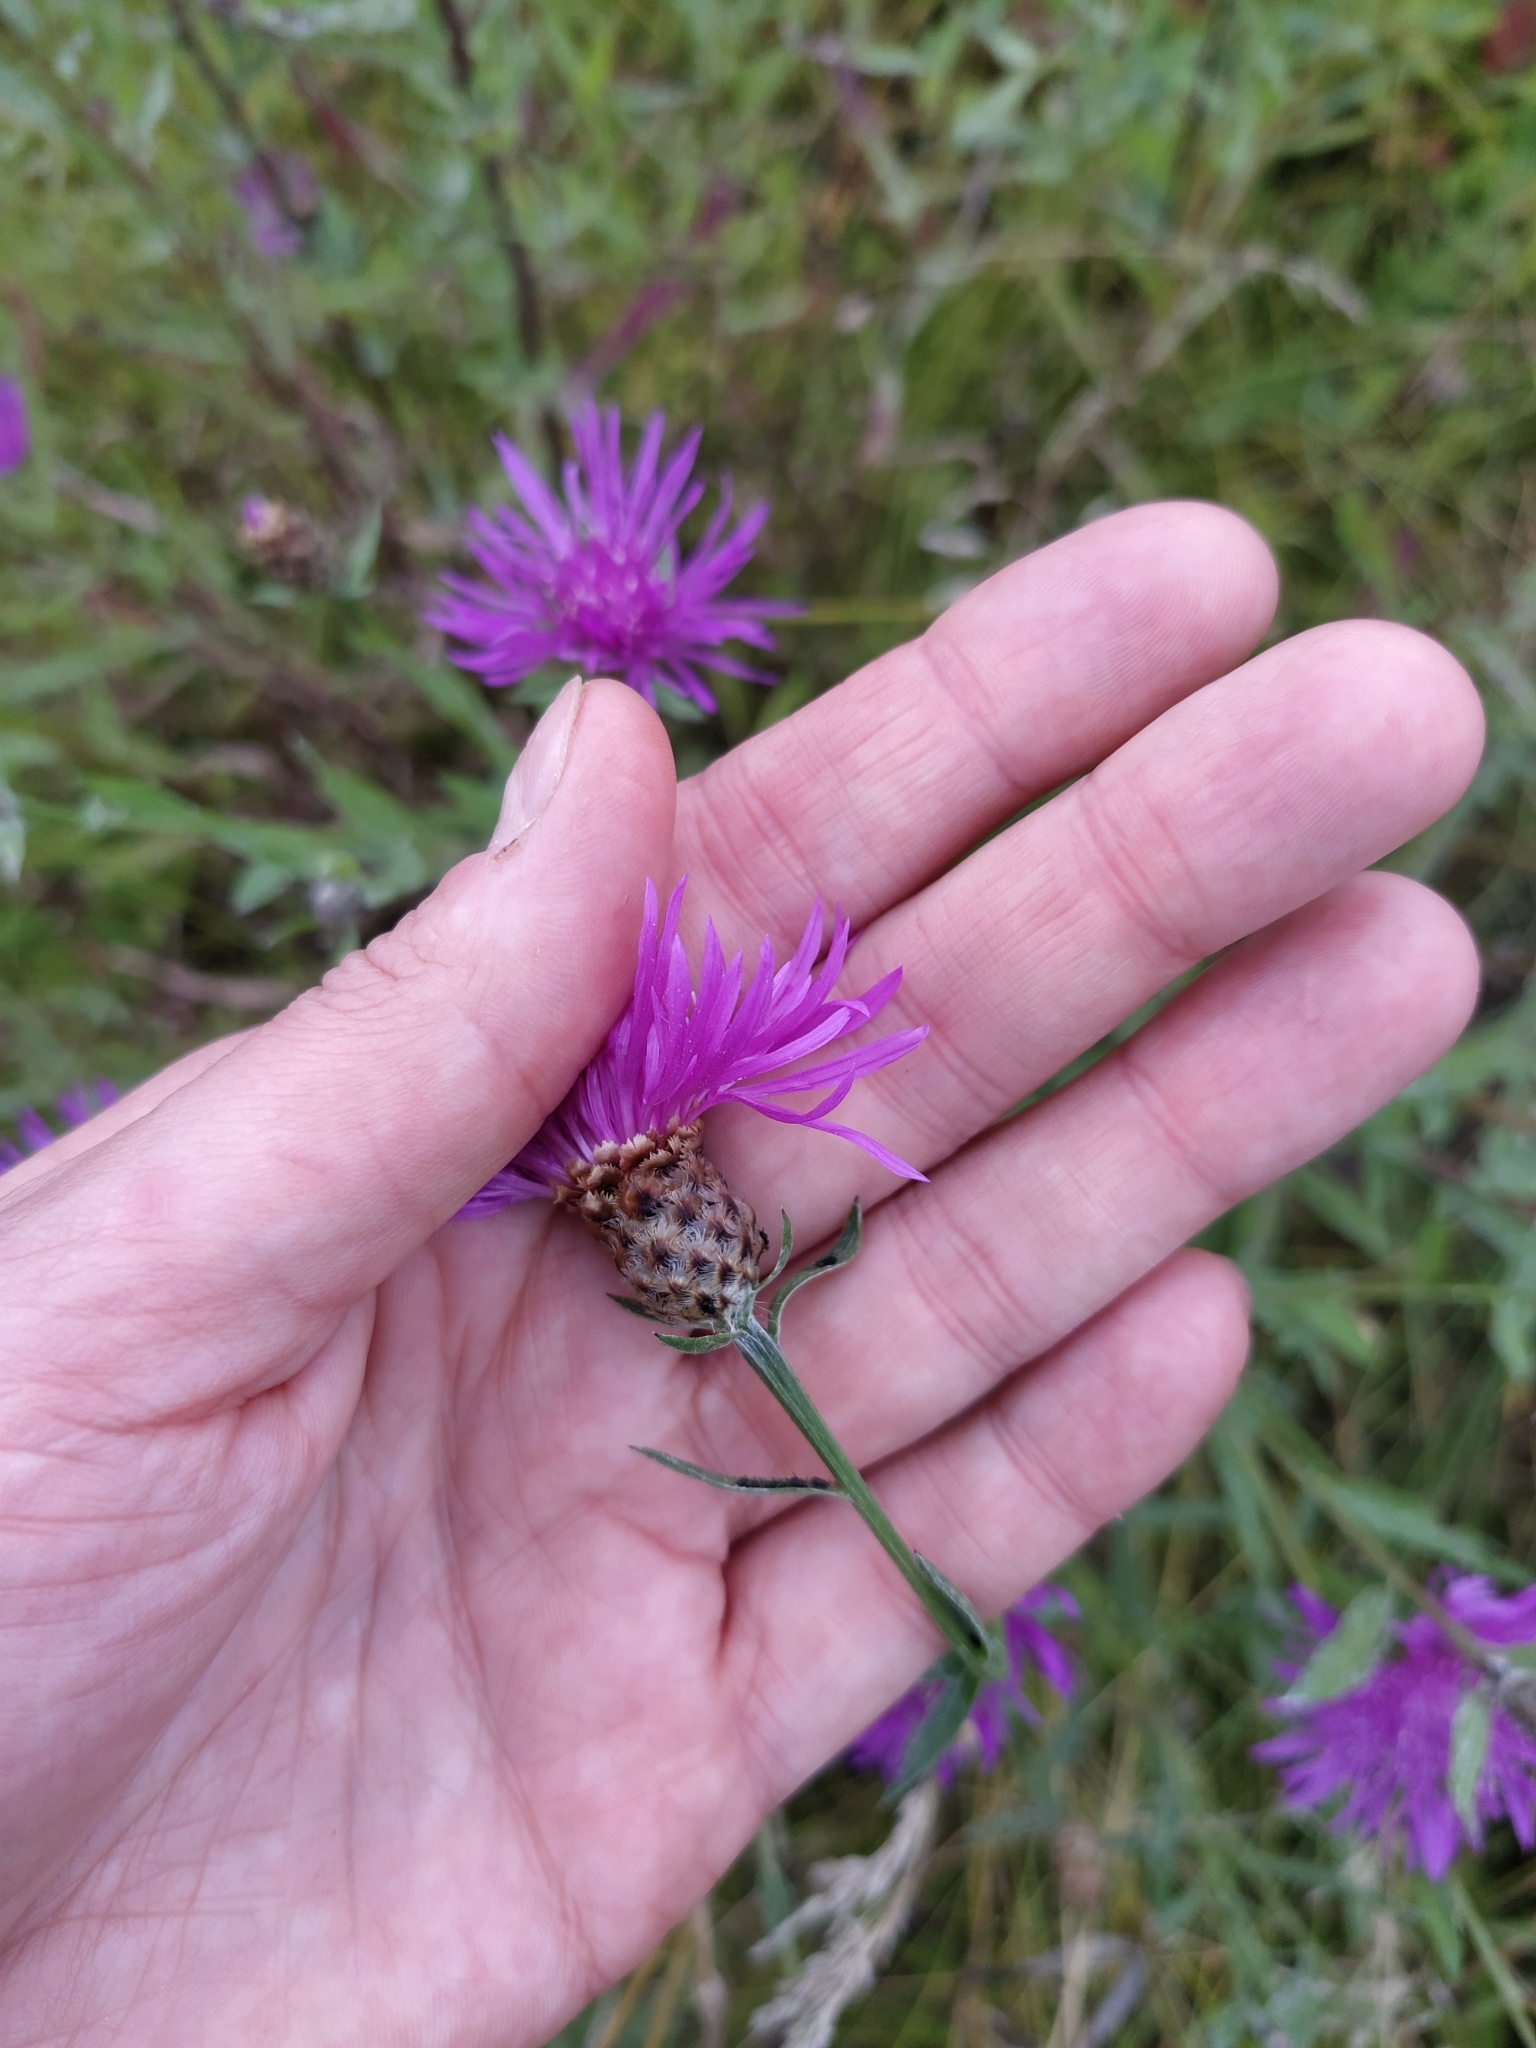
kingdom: Plantae
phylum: Tracheophyta
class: Magnoliopsida
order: Asterales
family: Asteraceae
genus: Centaurea
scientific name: Centaurea jacea
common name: Brown knapweed
